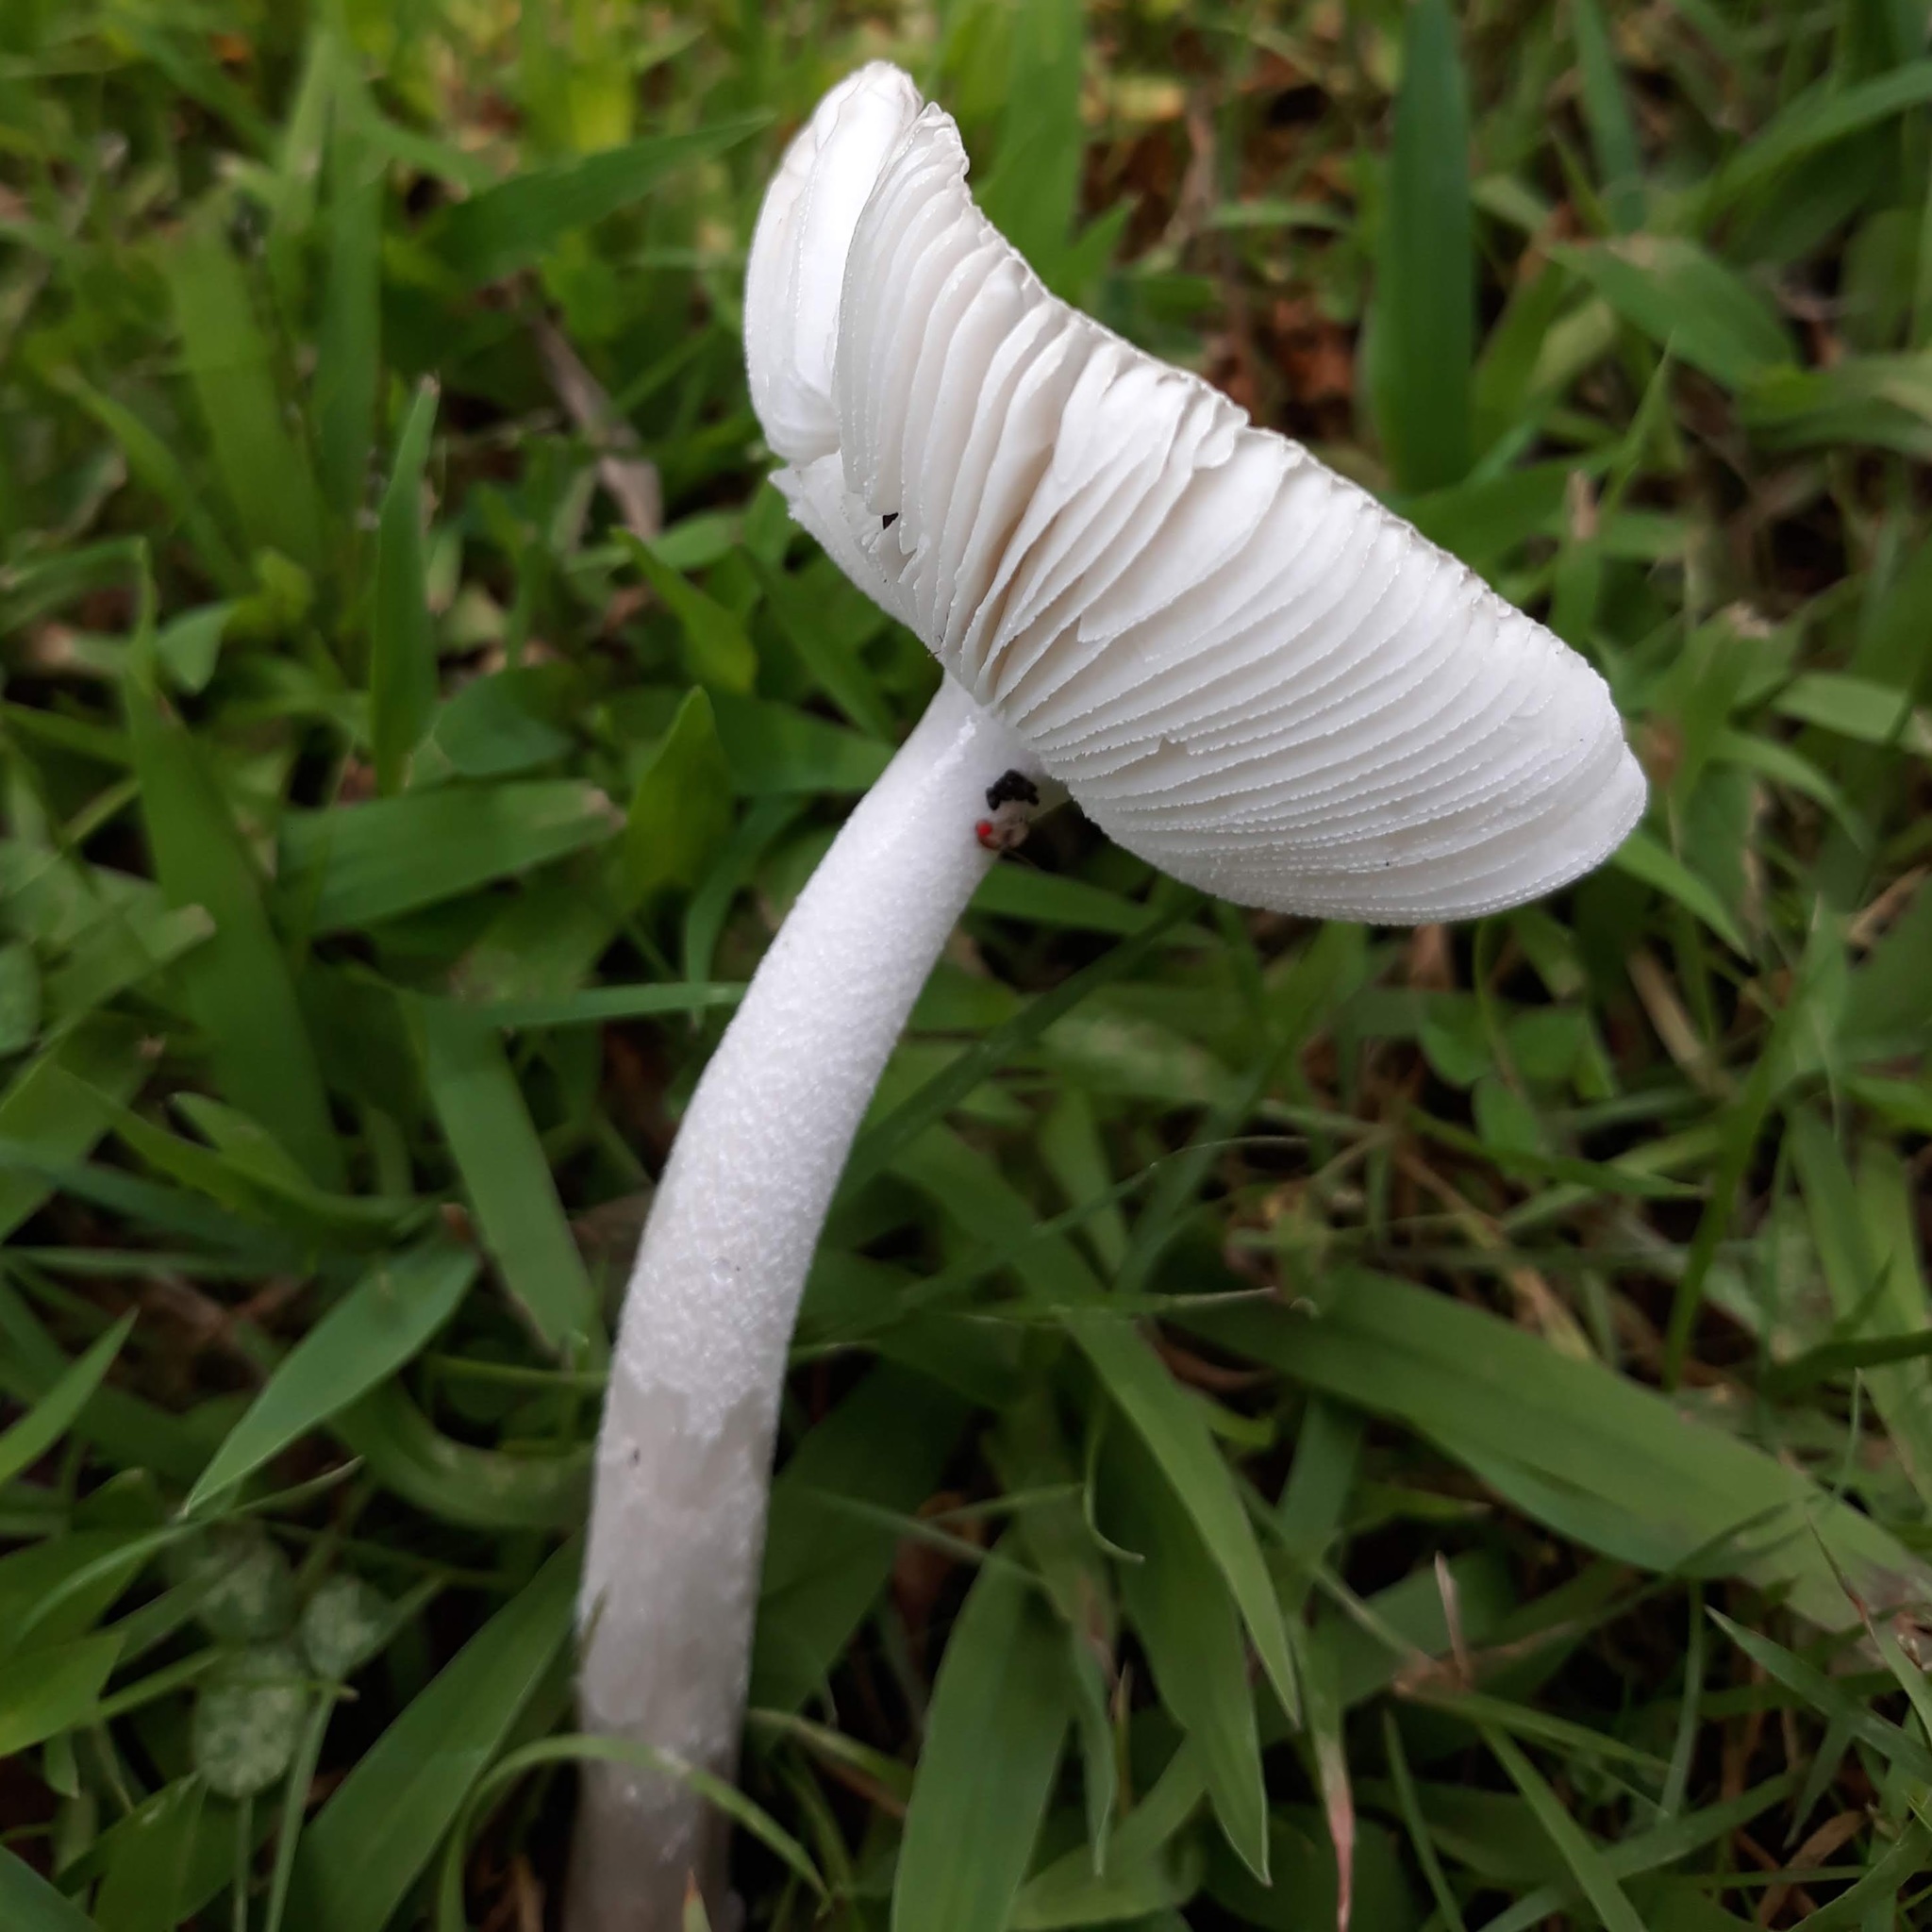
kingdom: Fungi
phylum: Basidiomycota
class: Agaricomycetes
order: Agaricales
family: Amanitaceae
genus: Amanita
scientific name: Amanita
